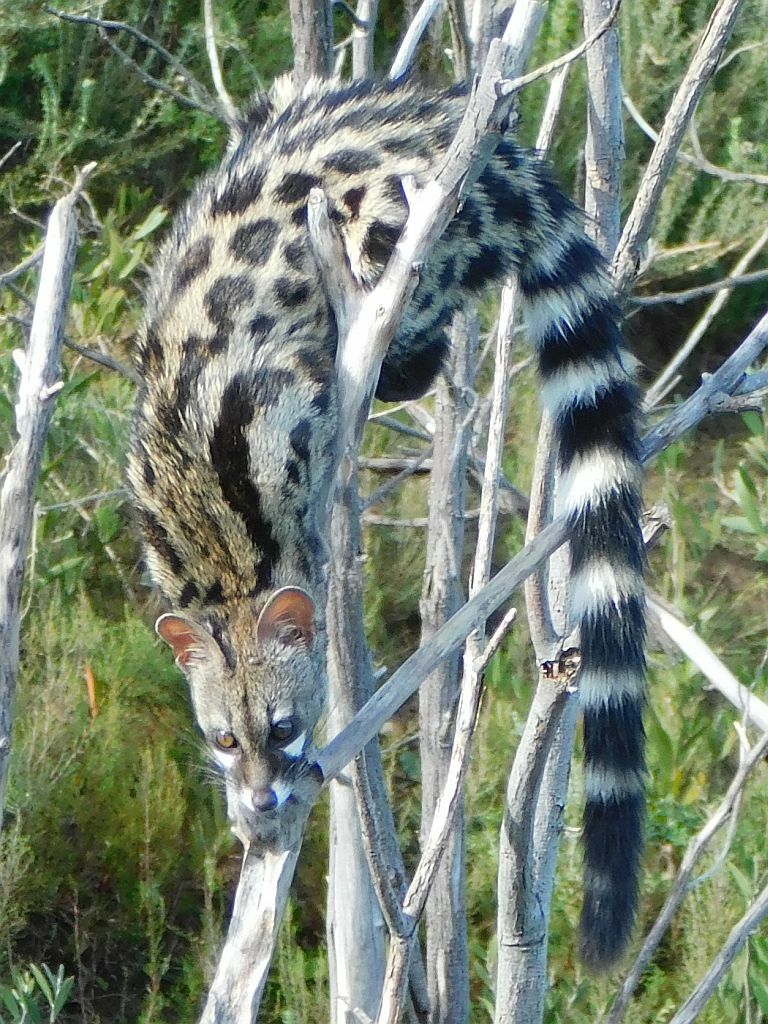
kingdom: Animalia
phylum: Chordata
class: Mammalia
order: Carnivora
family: Viverridae
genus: Genetta
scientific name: Genetta tigrina
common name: Cape genet
